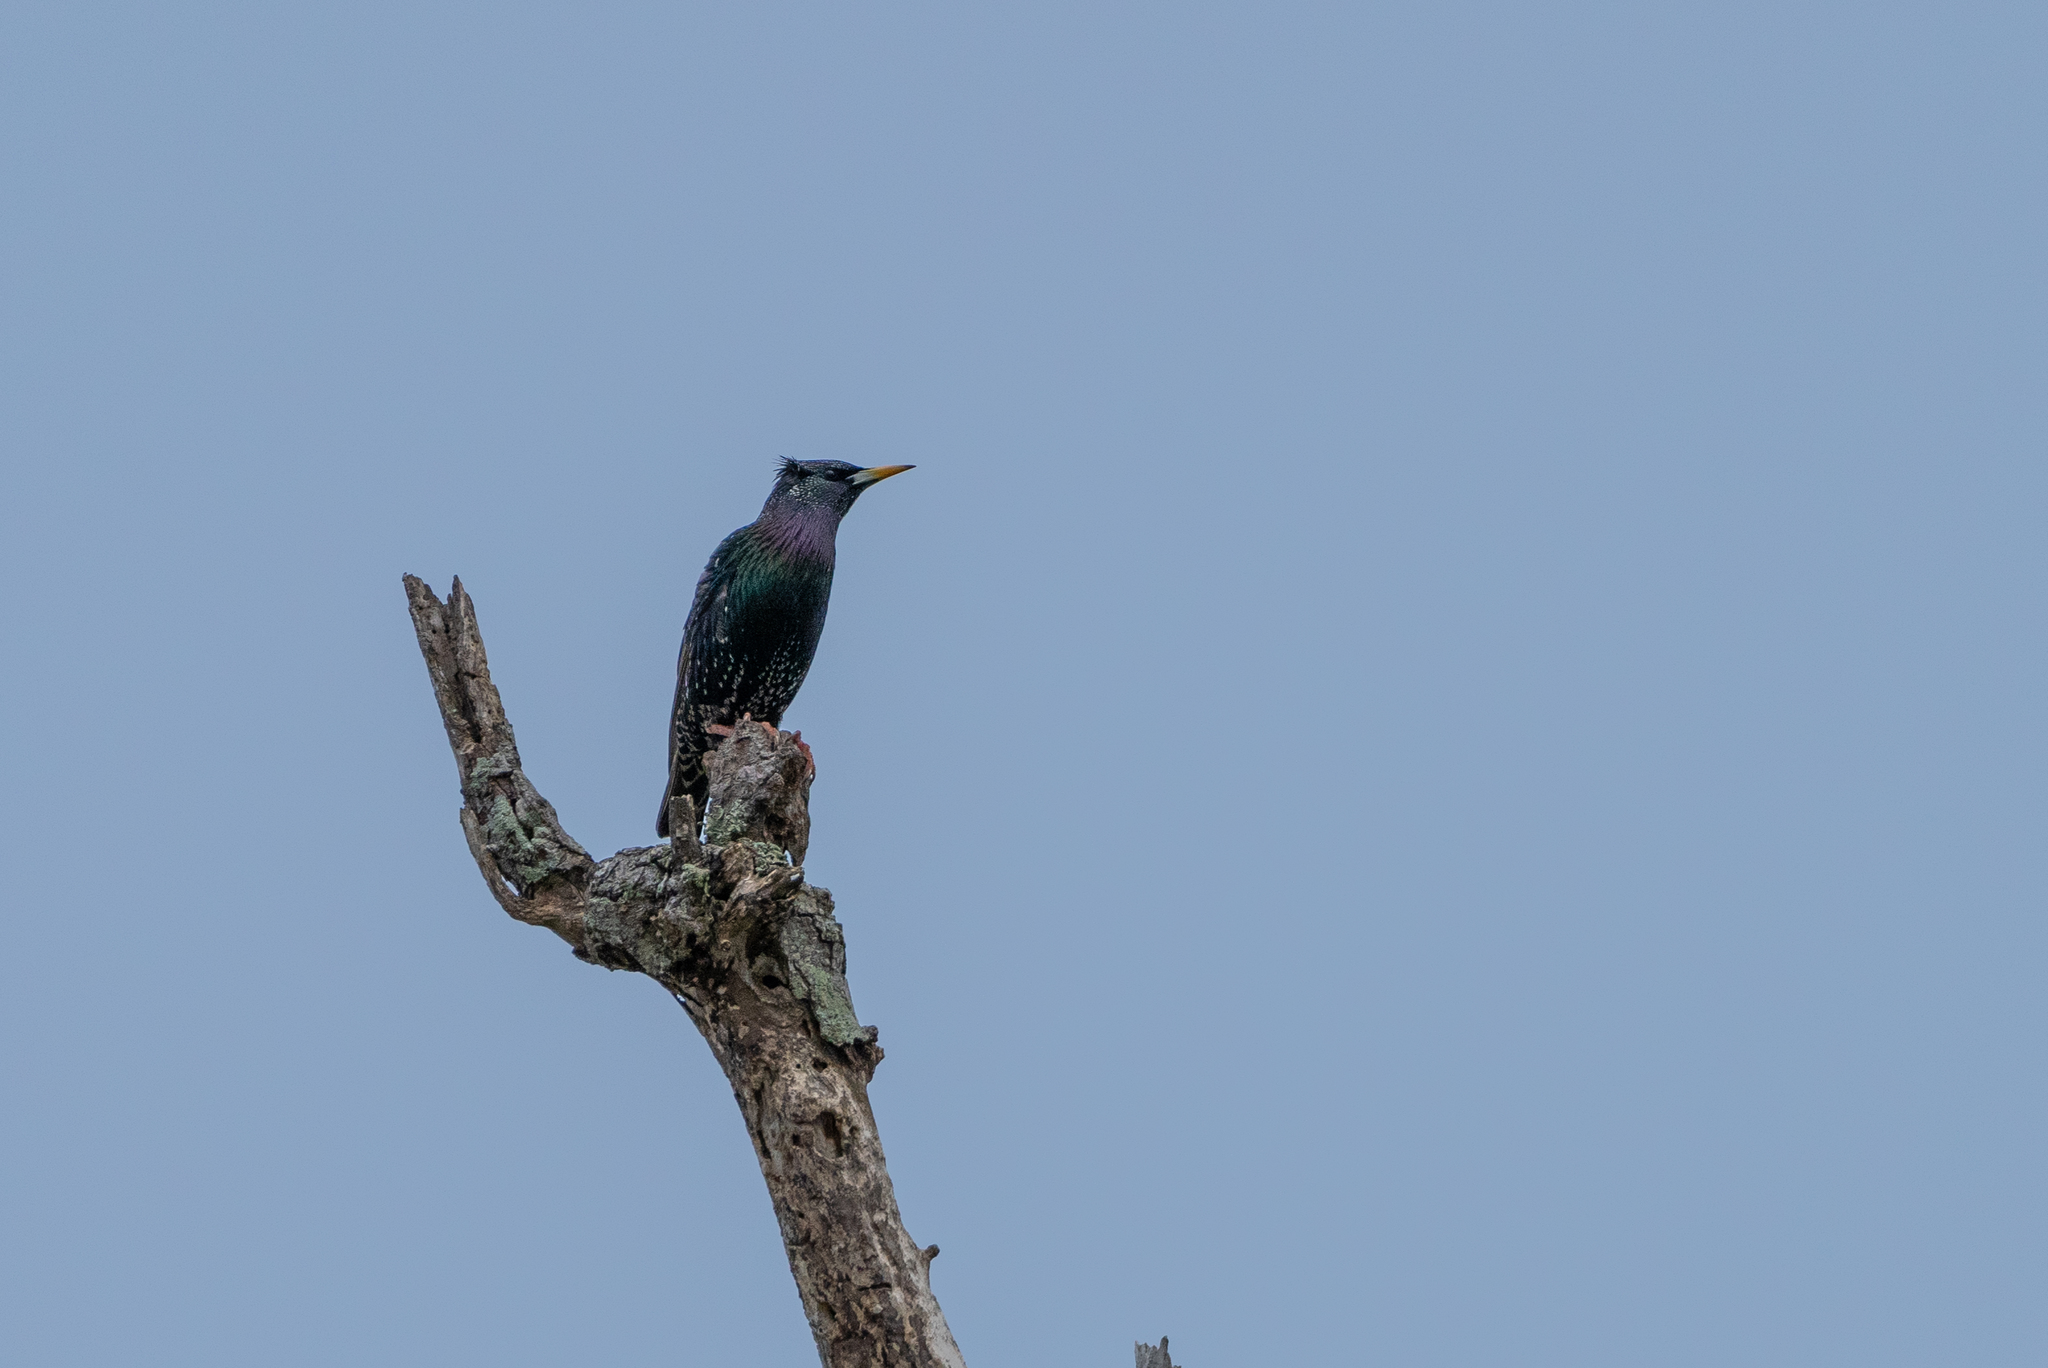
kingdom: Animalia
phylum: Chordata
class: Aves
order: Passeriformes
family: Sturnidae
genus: Sturnus
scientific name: Sturnus vulgaris
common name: Common starling
